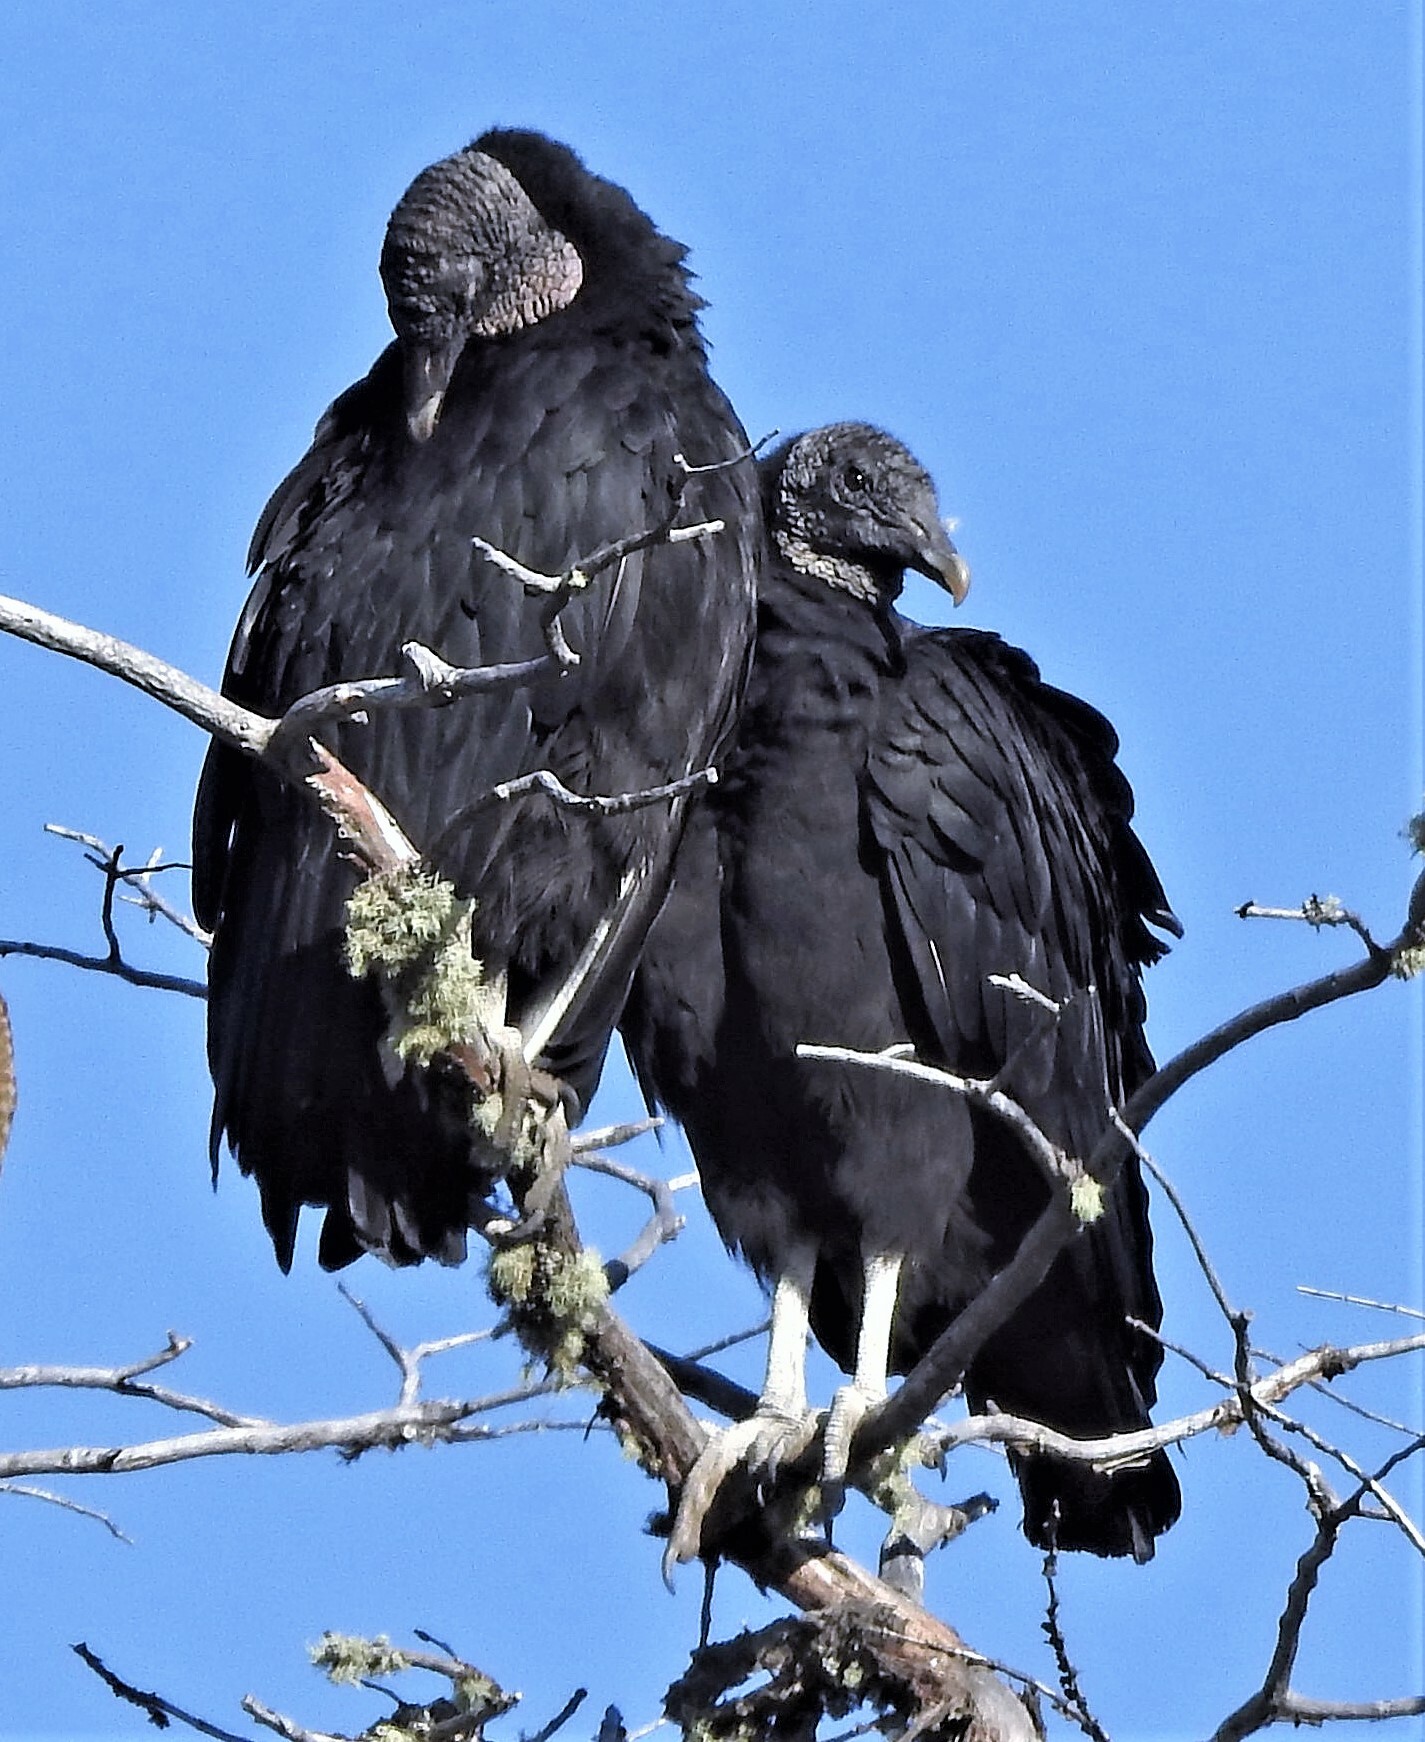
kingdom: Animalia
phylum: Chordata
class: Aves
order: Accipitriformes
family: Cathartidae
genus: Coragyps
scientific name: Coragyps atratus
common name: Black vulture
